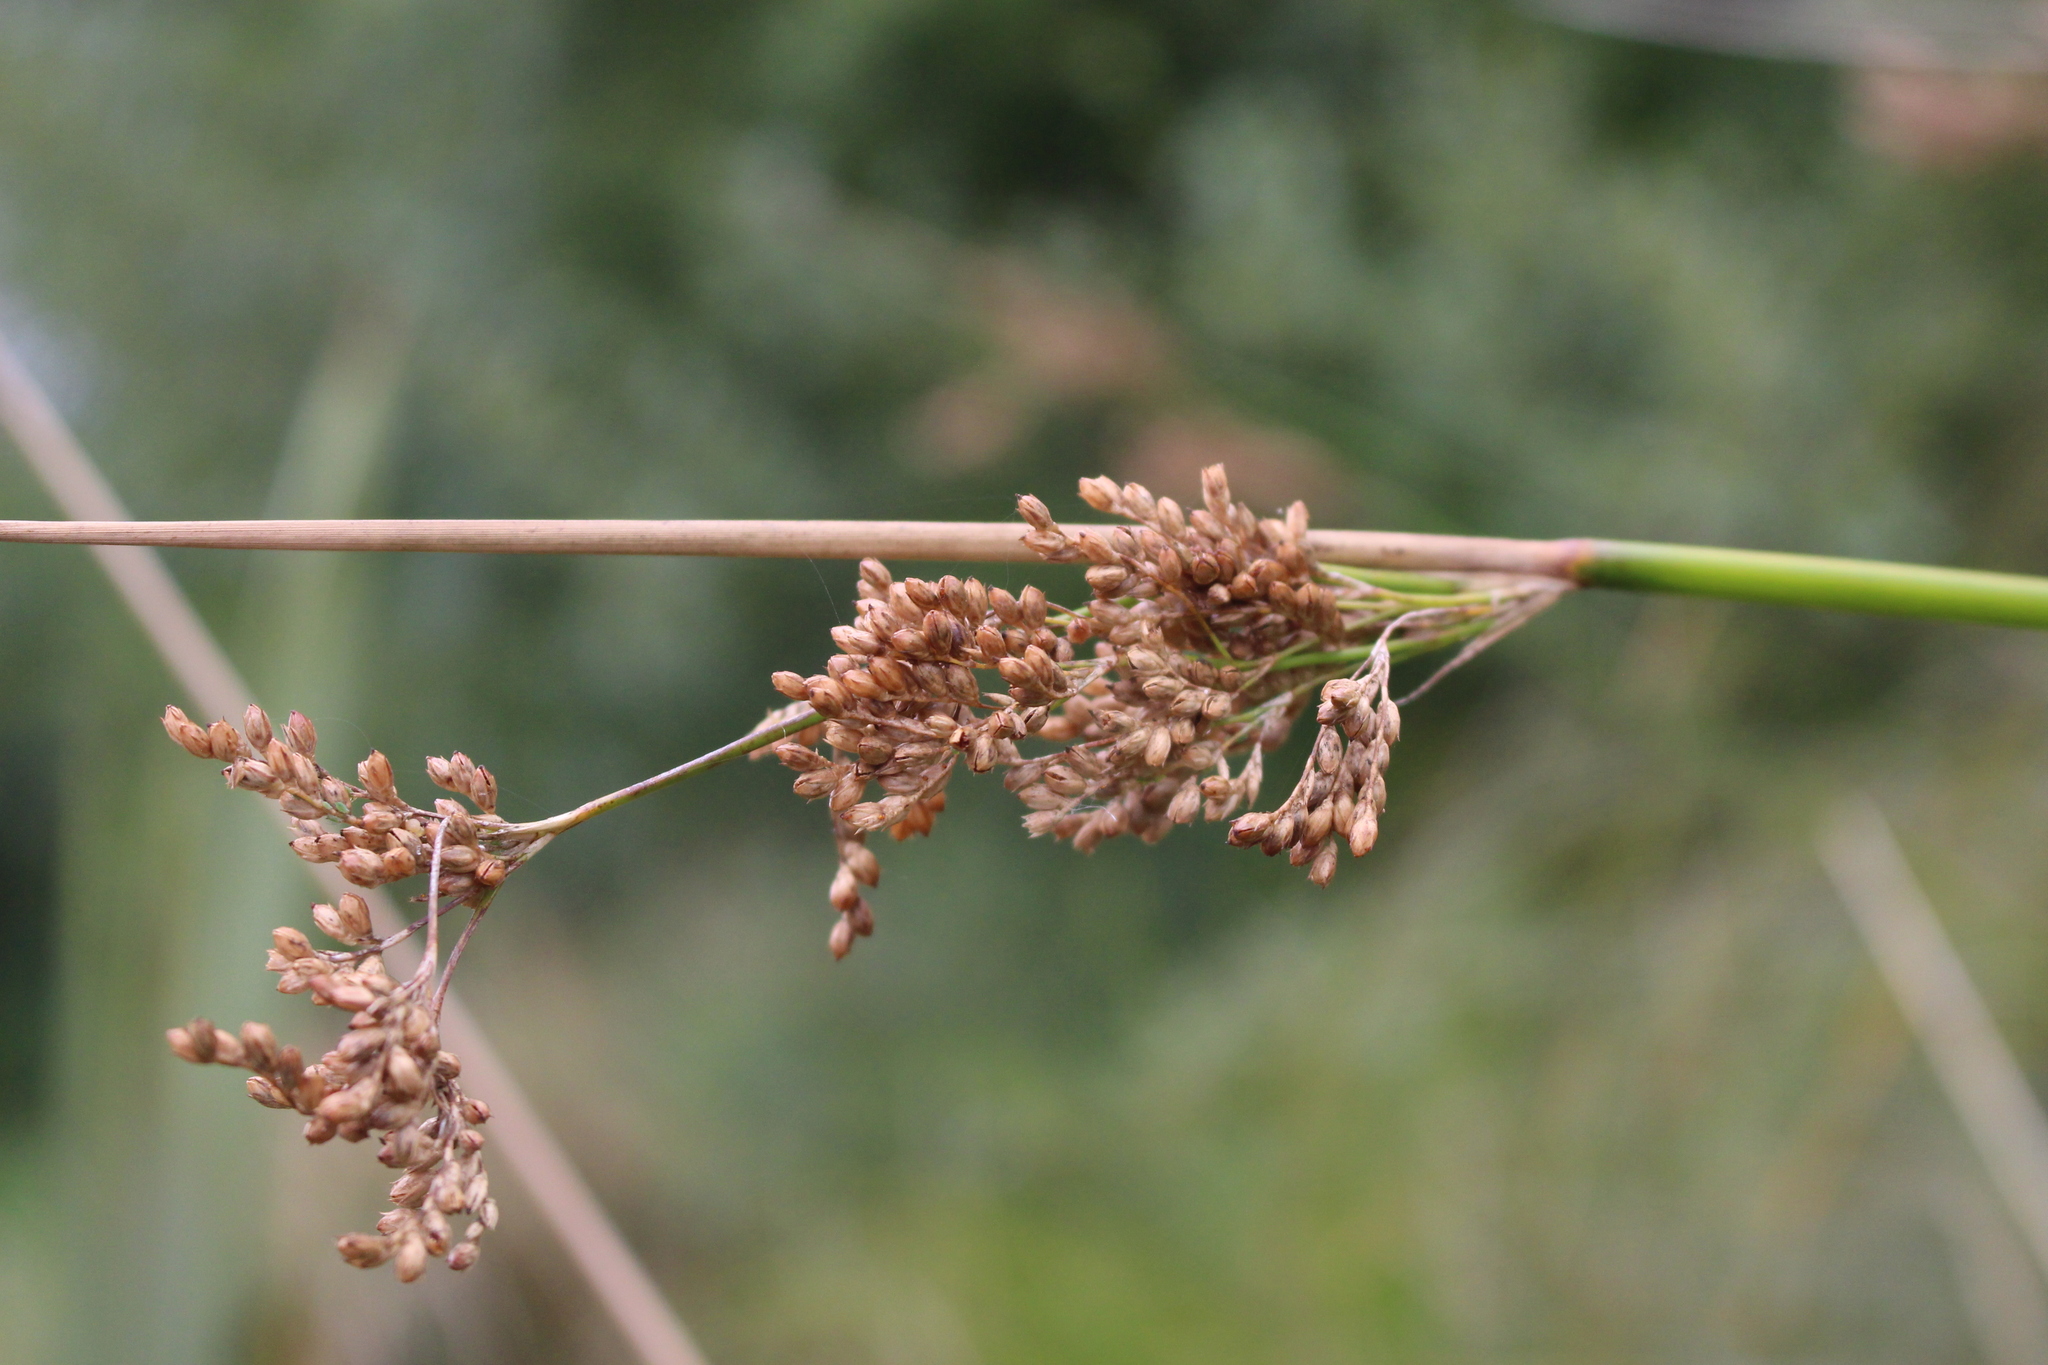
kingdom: Plantae
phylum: Tracheophyta
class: Liliopsida
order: Poales
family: Juncaceae
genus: Juncus
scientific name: Juncus pallidus
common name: Great soft-rush
